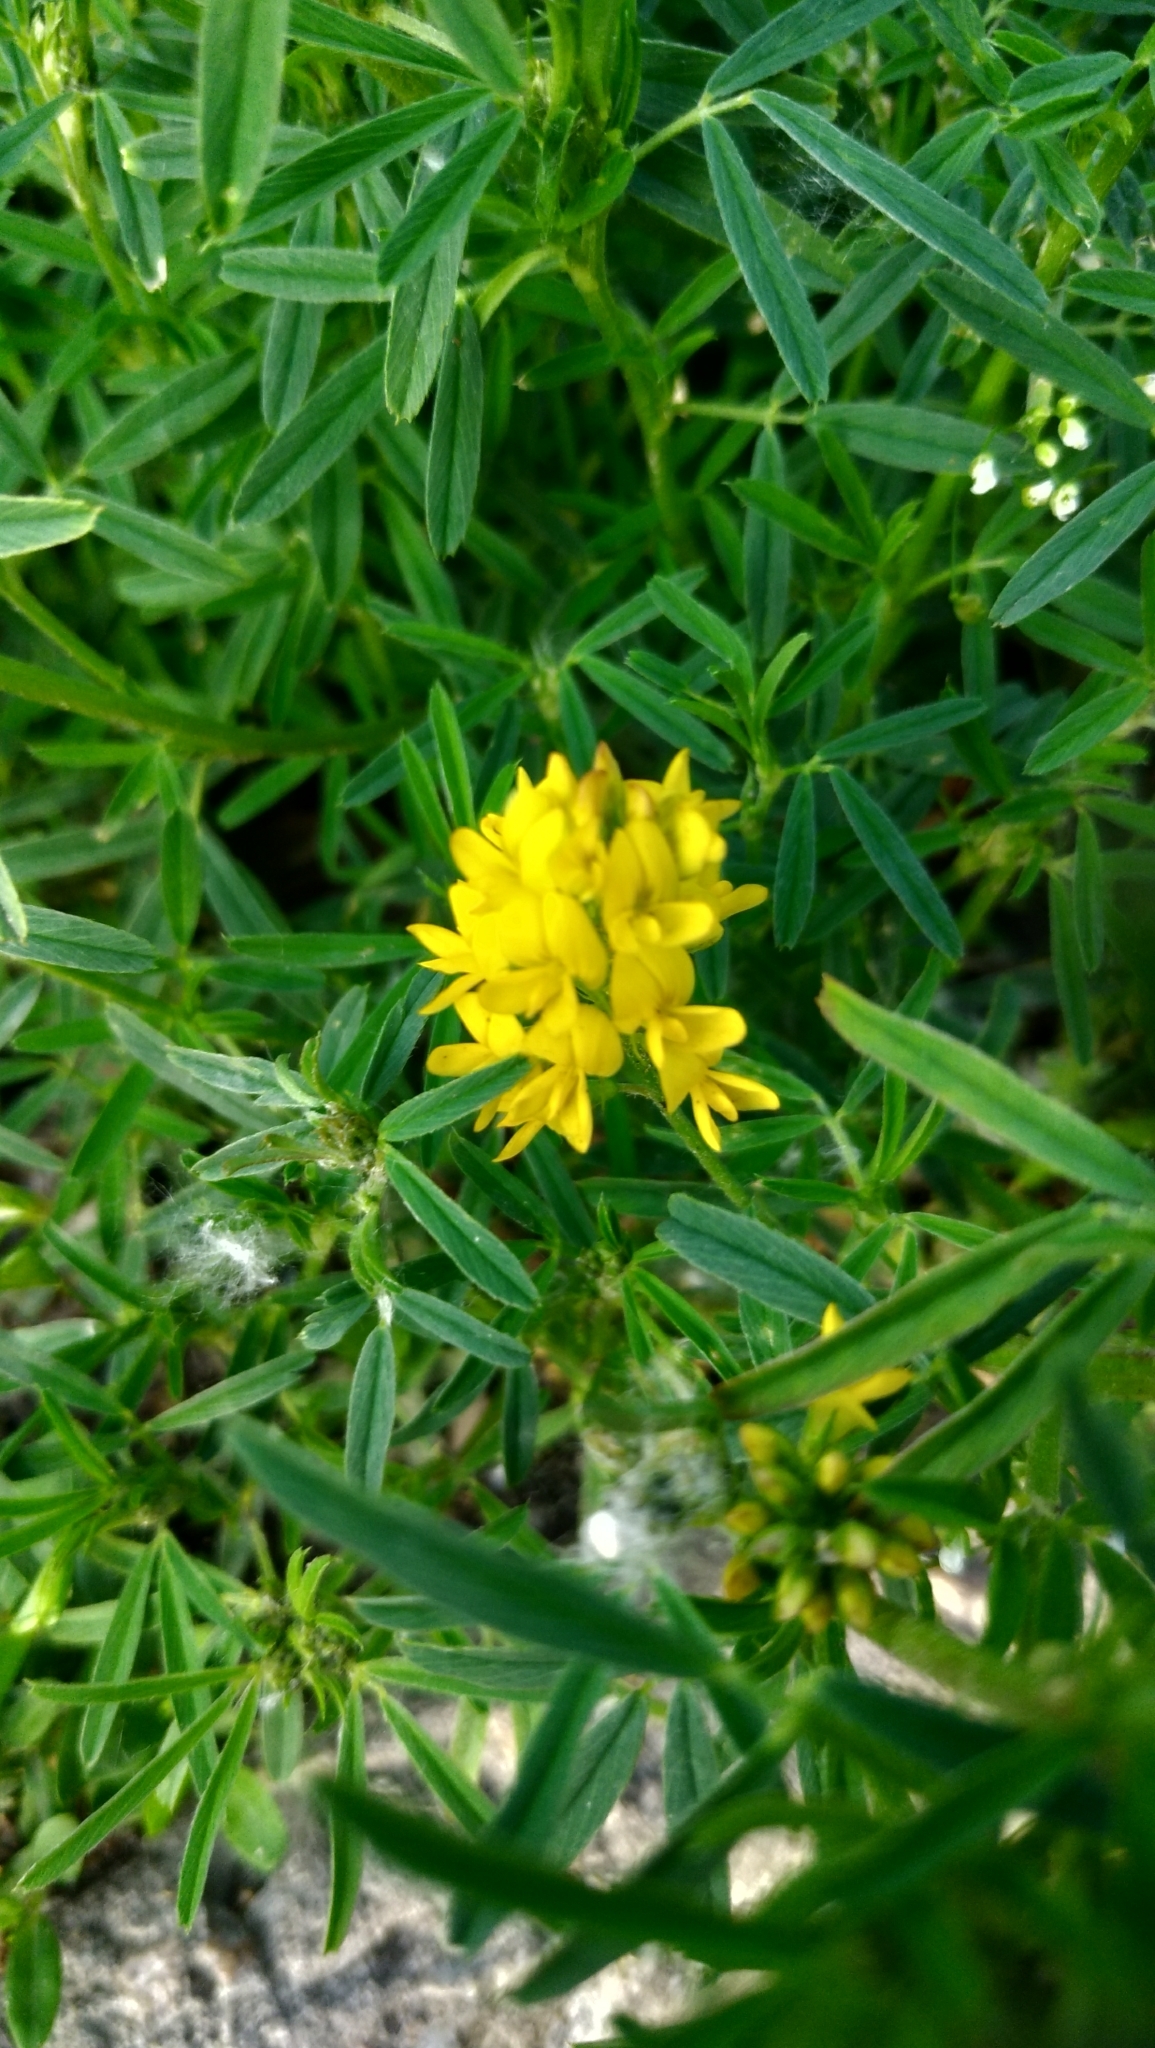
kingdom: Plantae
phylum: Tracheophyta
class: Magnoliopsida
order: Fabales
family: Fabaceae
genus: Medicago
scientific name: Medicago falcata
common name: Sickle medick
